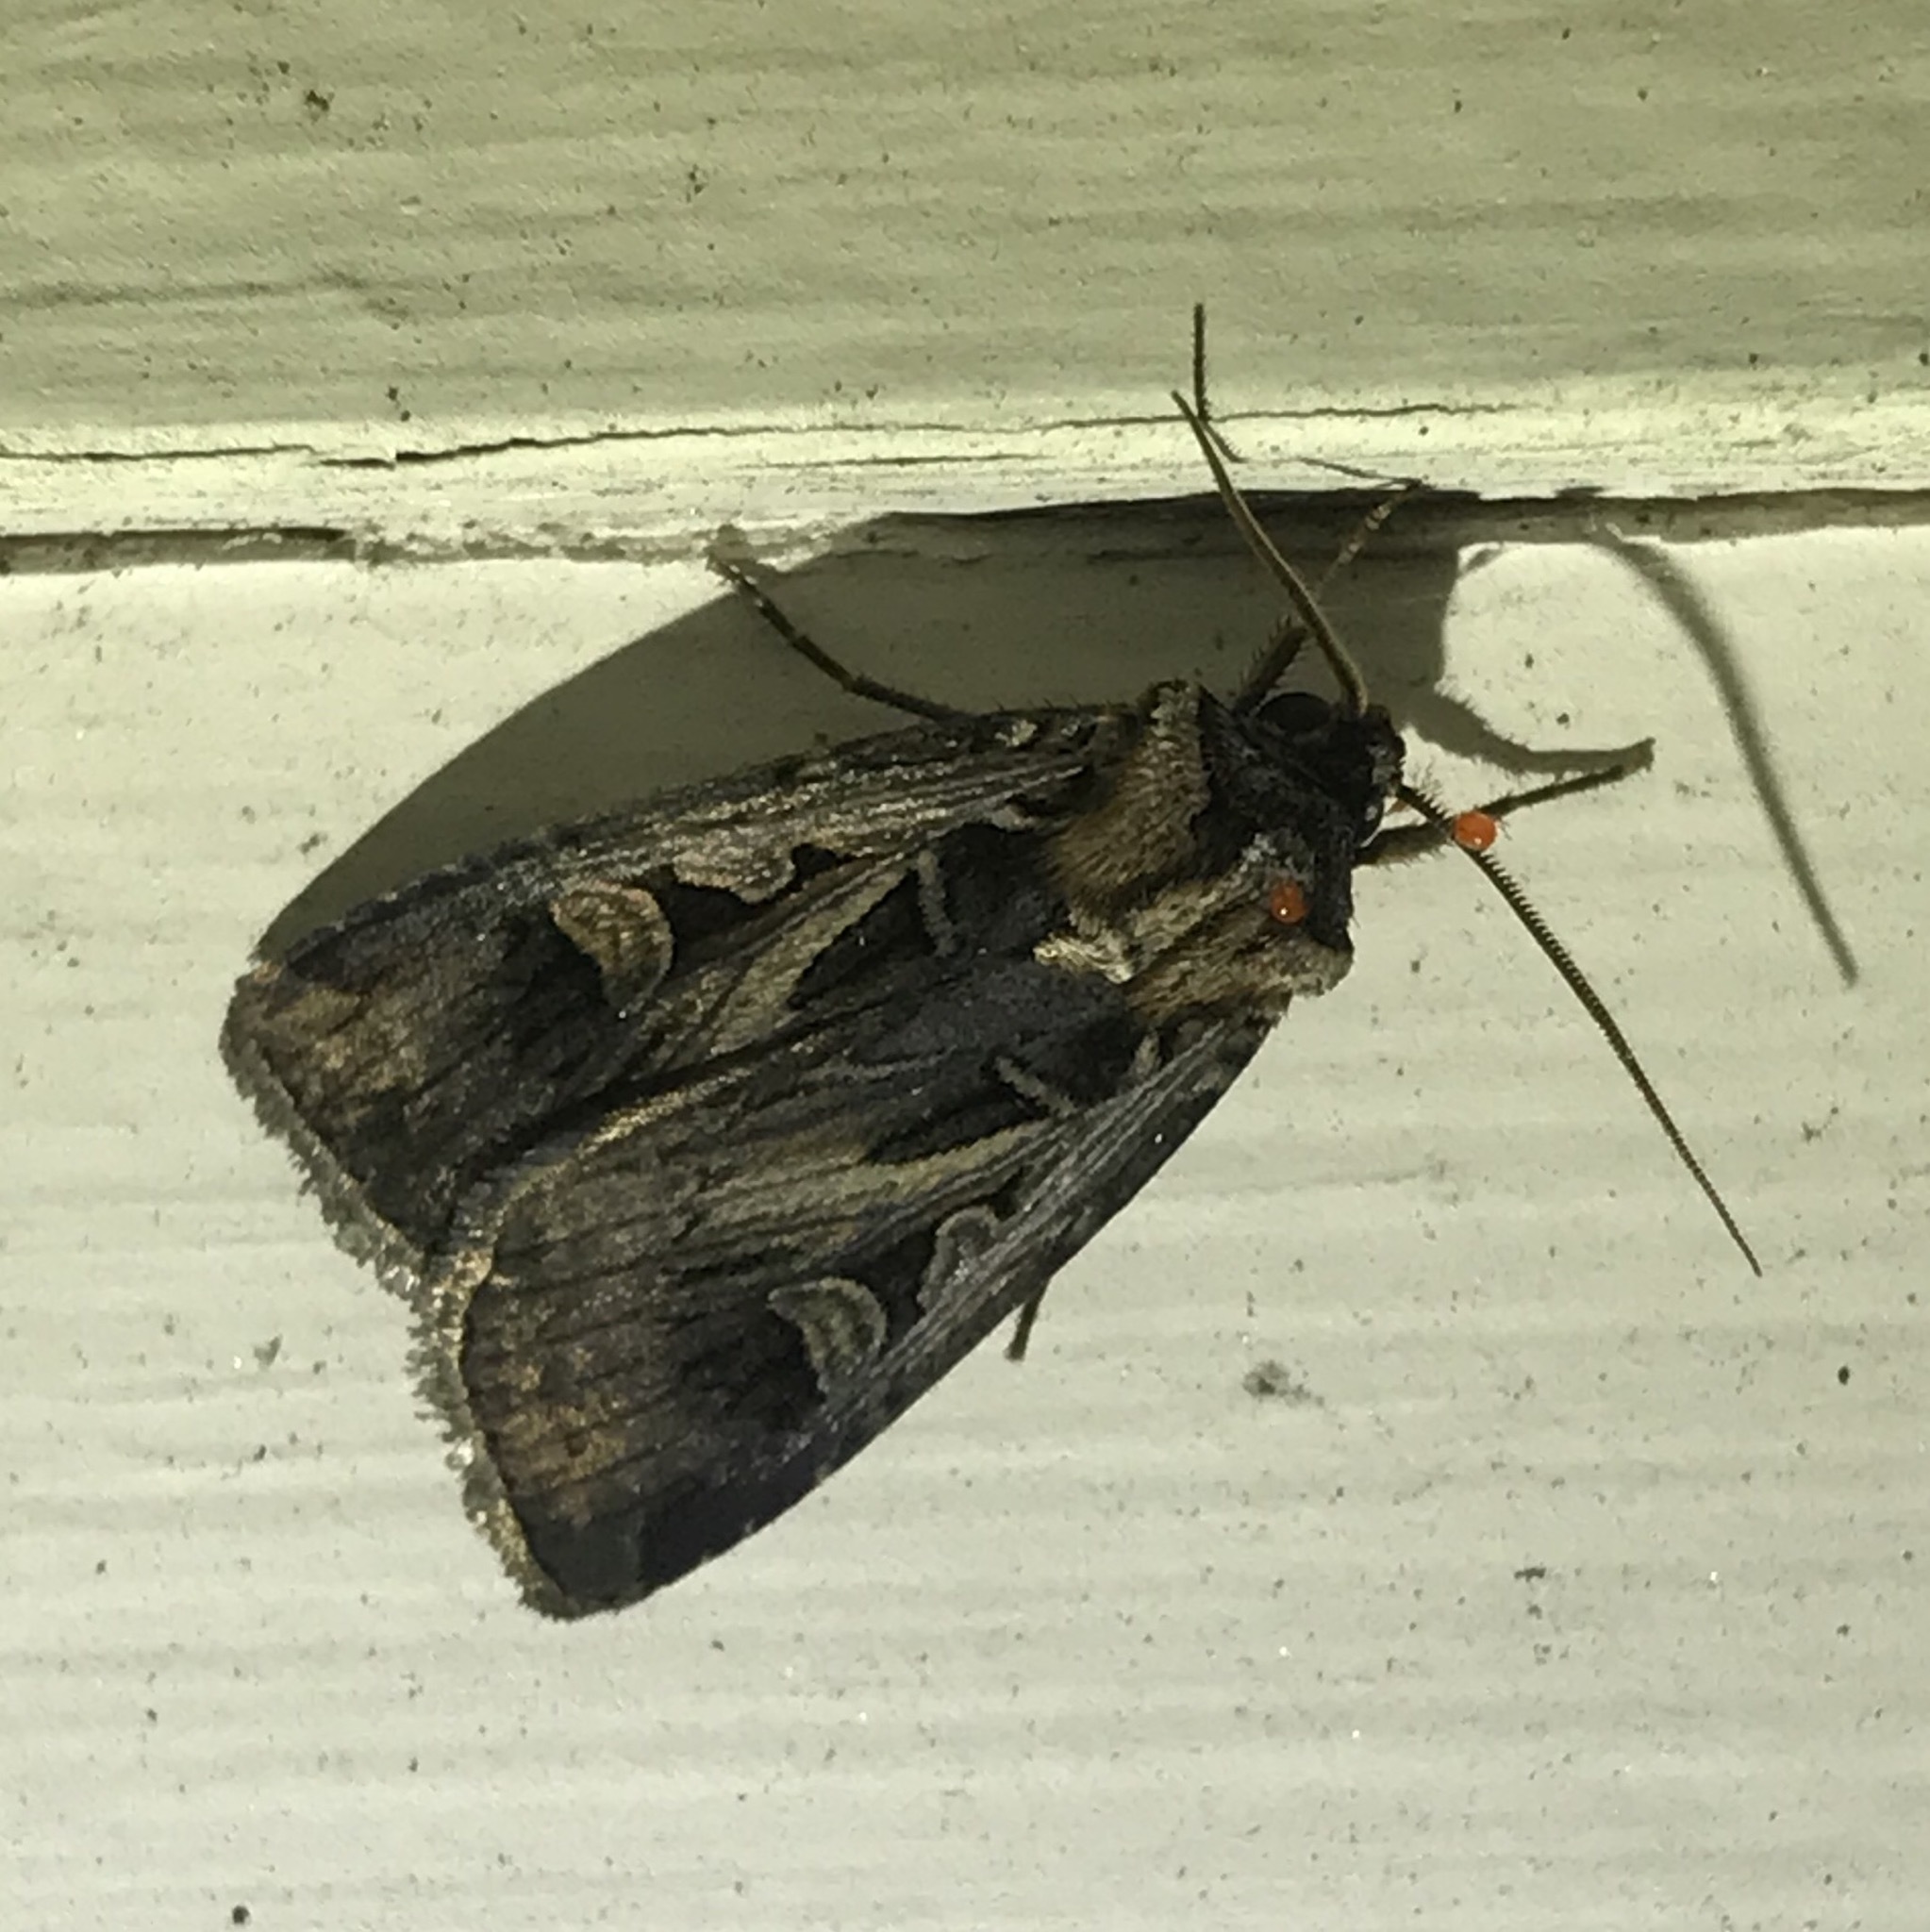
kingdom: Animalia
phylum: Arthropoda
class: Insecta
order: Lepidoptera
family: Noctuidae
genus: Feltia
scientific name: Feltia herilis
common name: Master's dart
